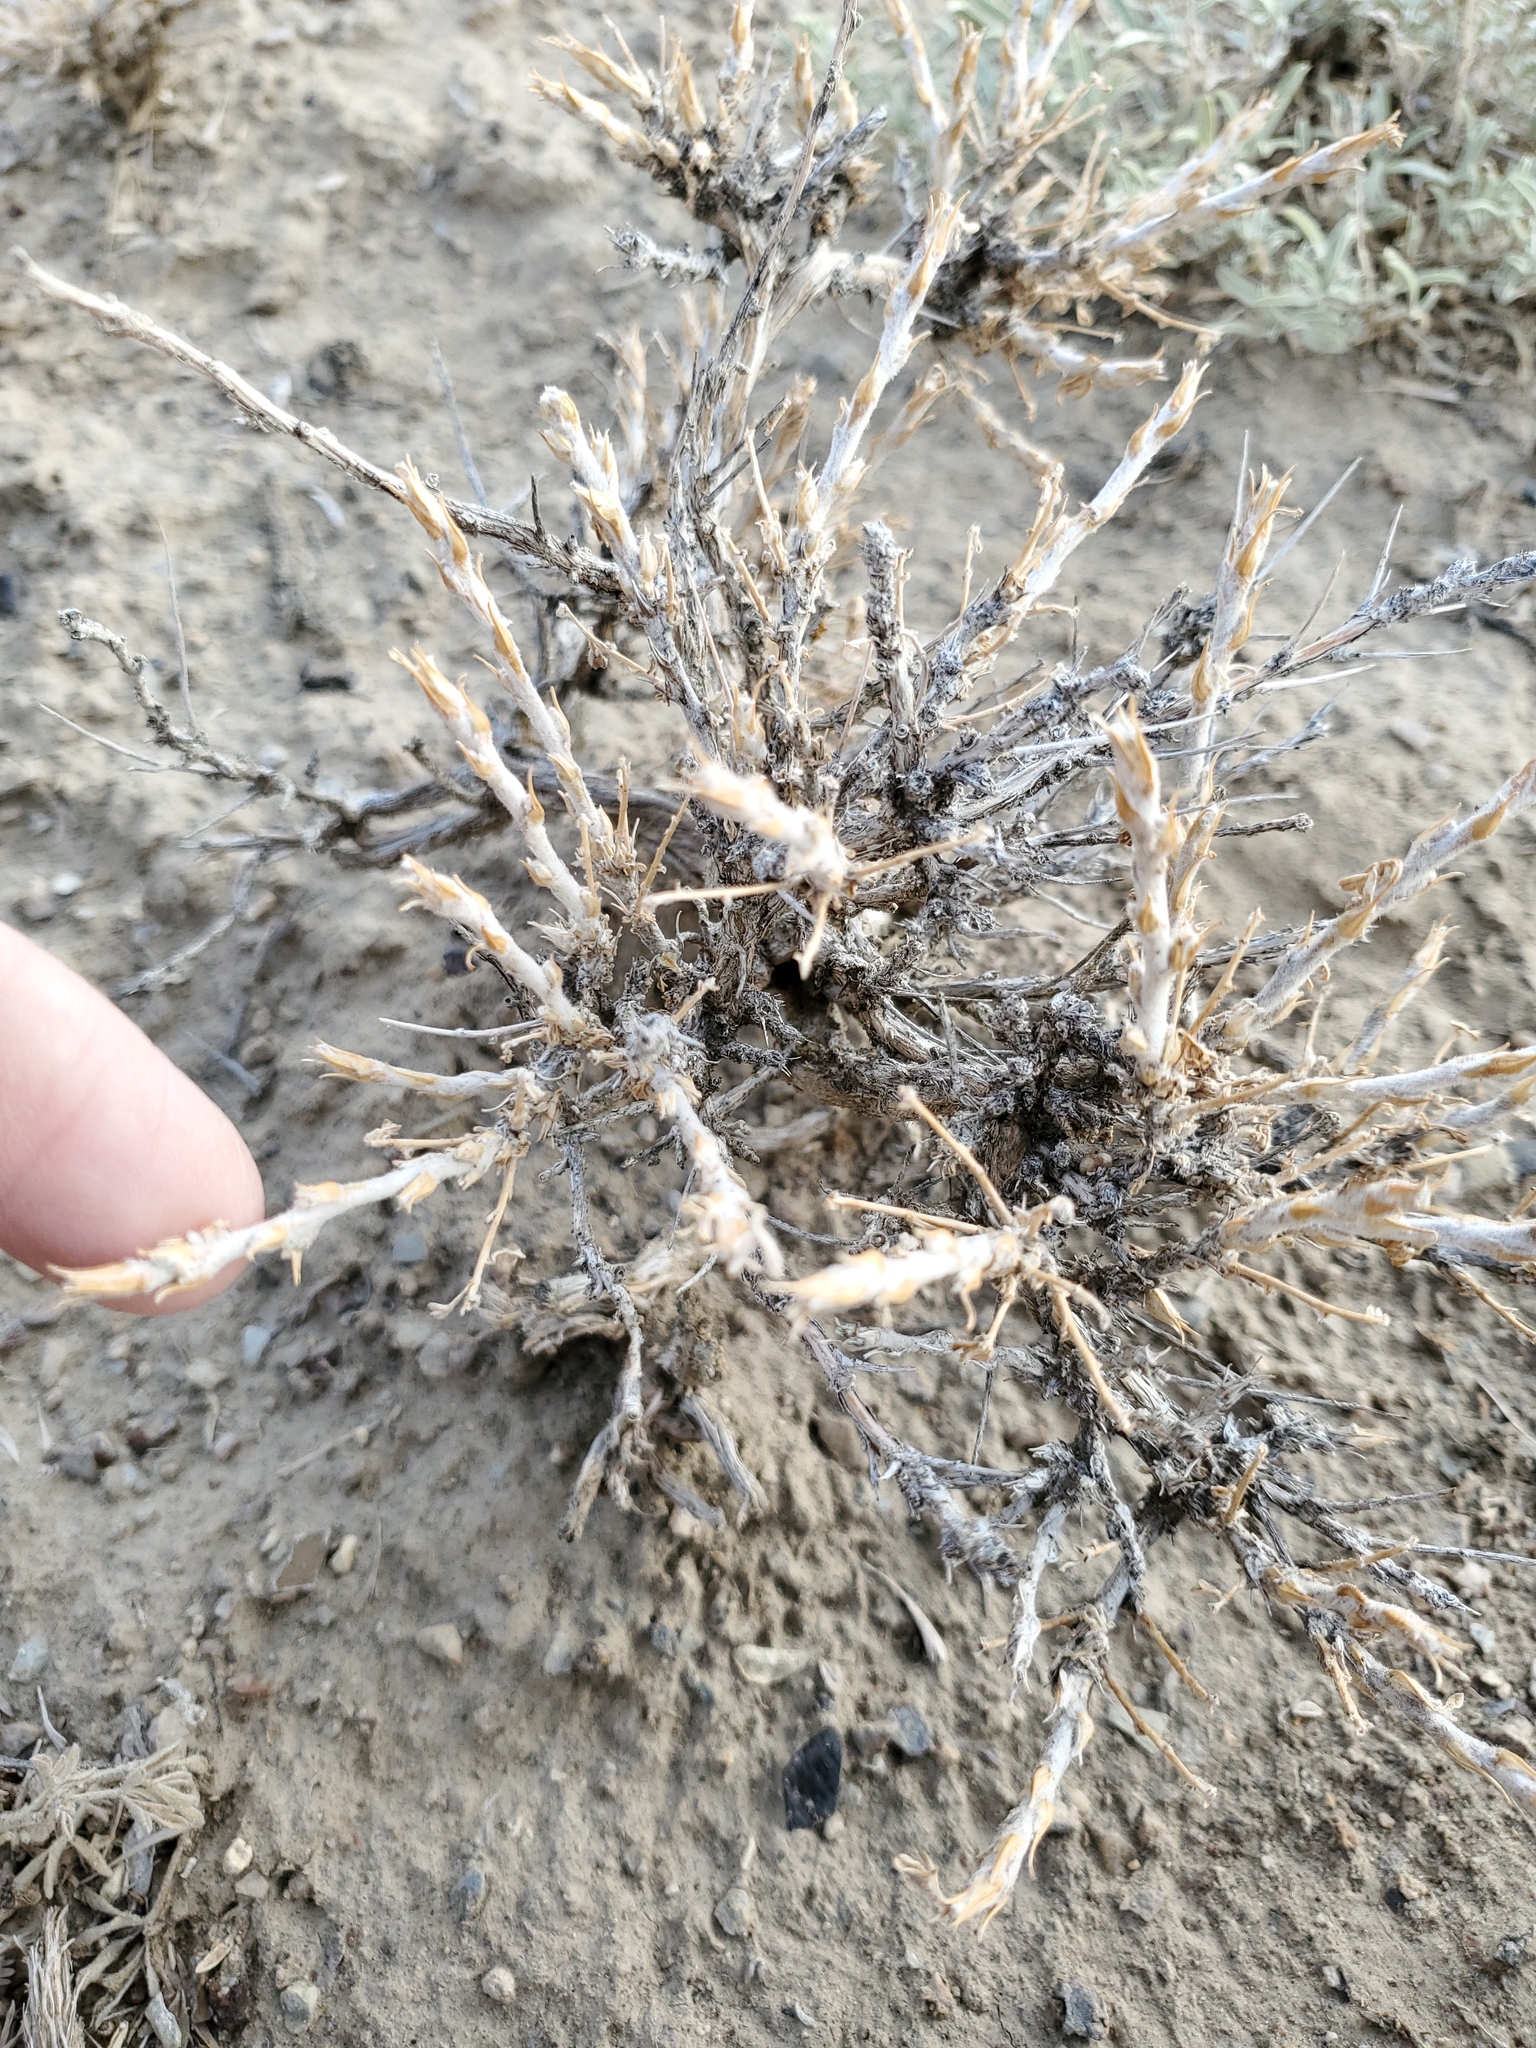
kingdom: Plantae
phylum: Tracheophyta
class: Magnoliopsida
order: Asterales
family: Asteraceae
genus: Artemisia
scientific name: Artemisia spinescens
